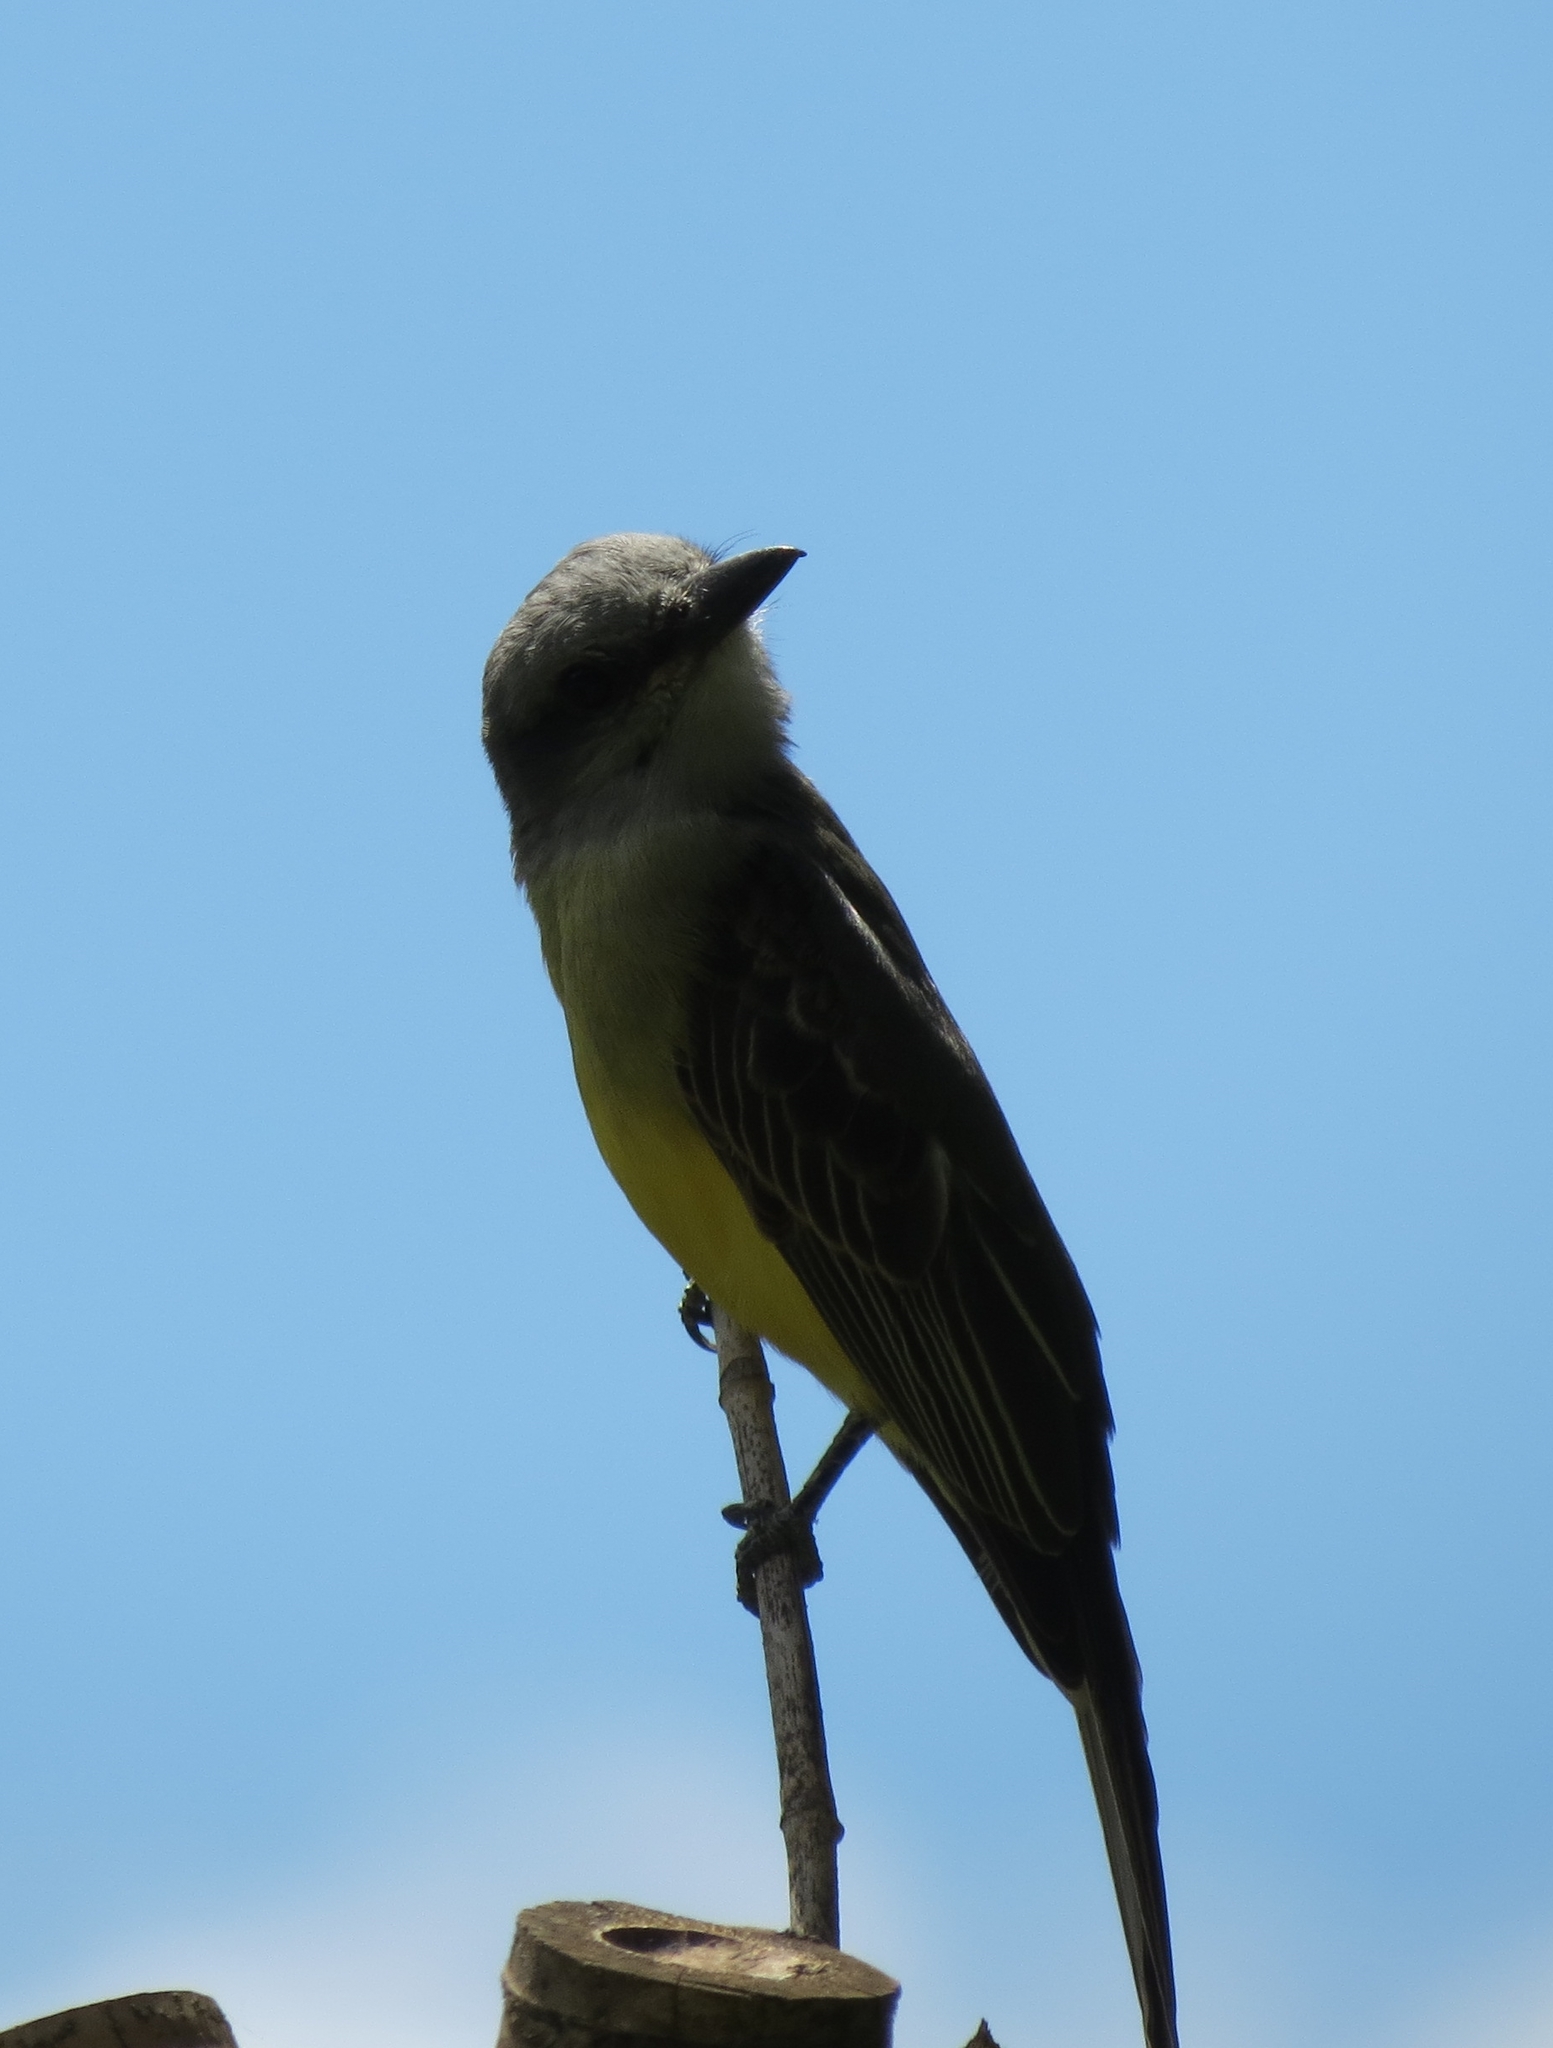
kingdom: Animalia
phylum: Chordata
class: Aves
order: Passeriformes
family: Tyrannidae
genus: Tyrannus
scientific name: Tyrannus melancholicus
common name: Tropical kingbird
